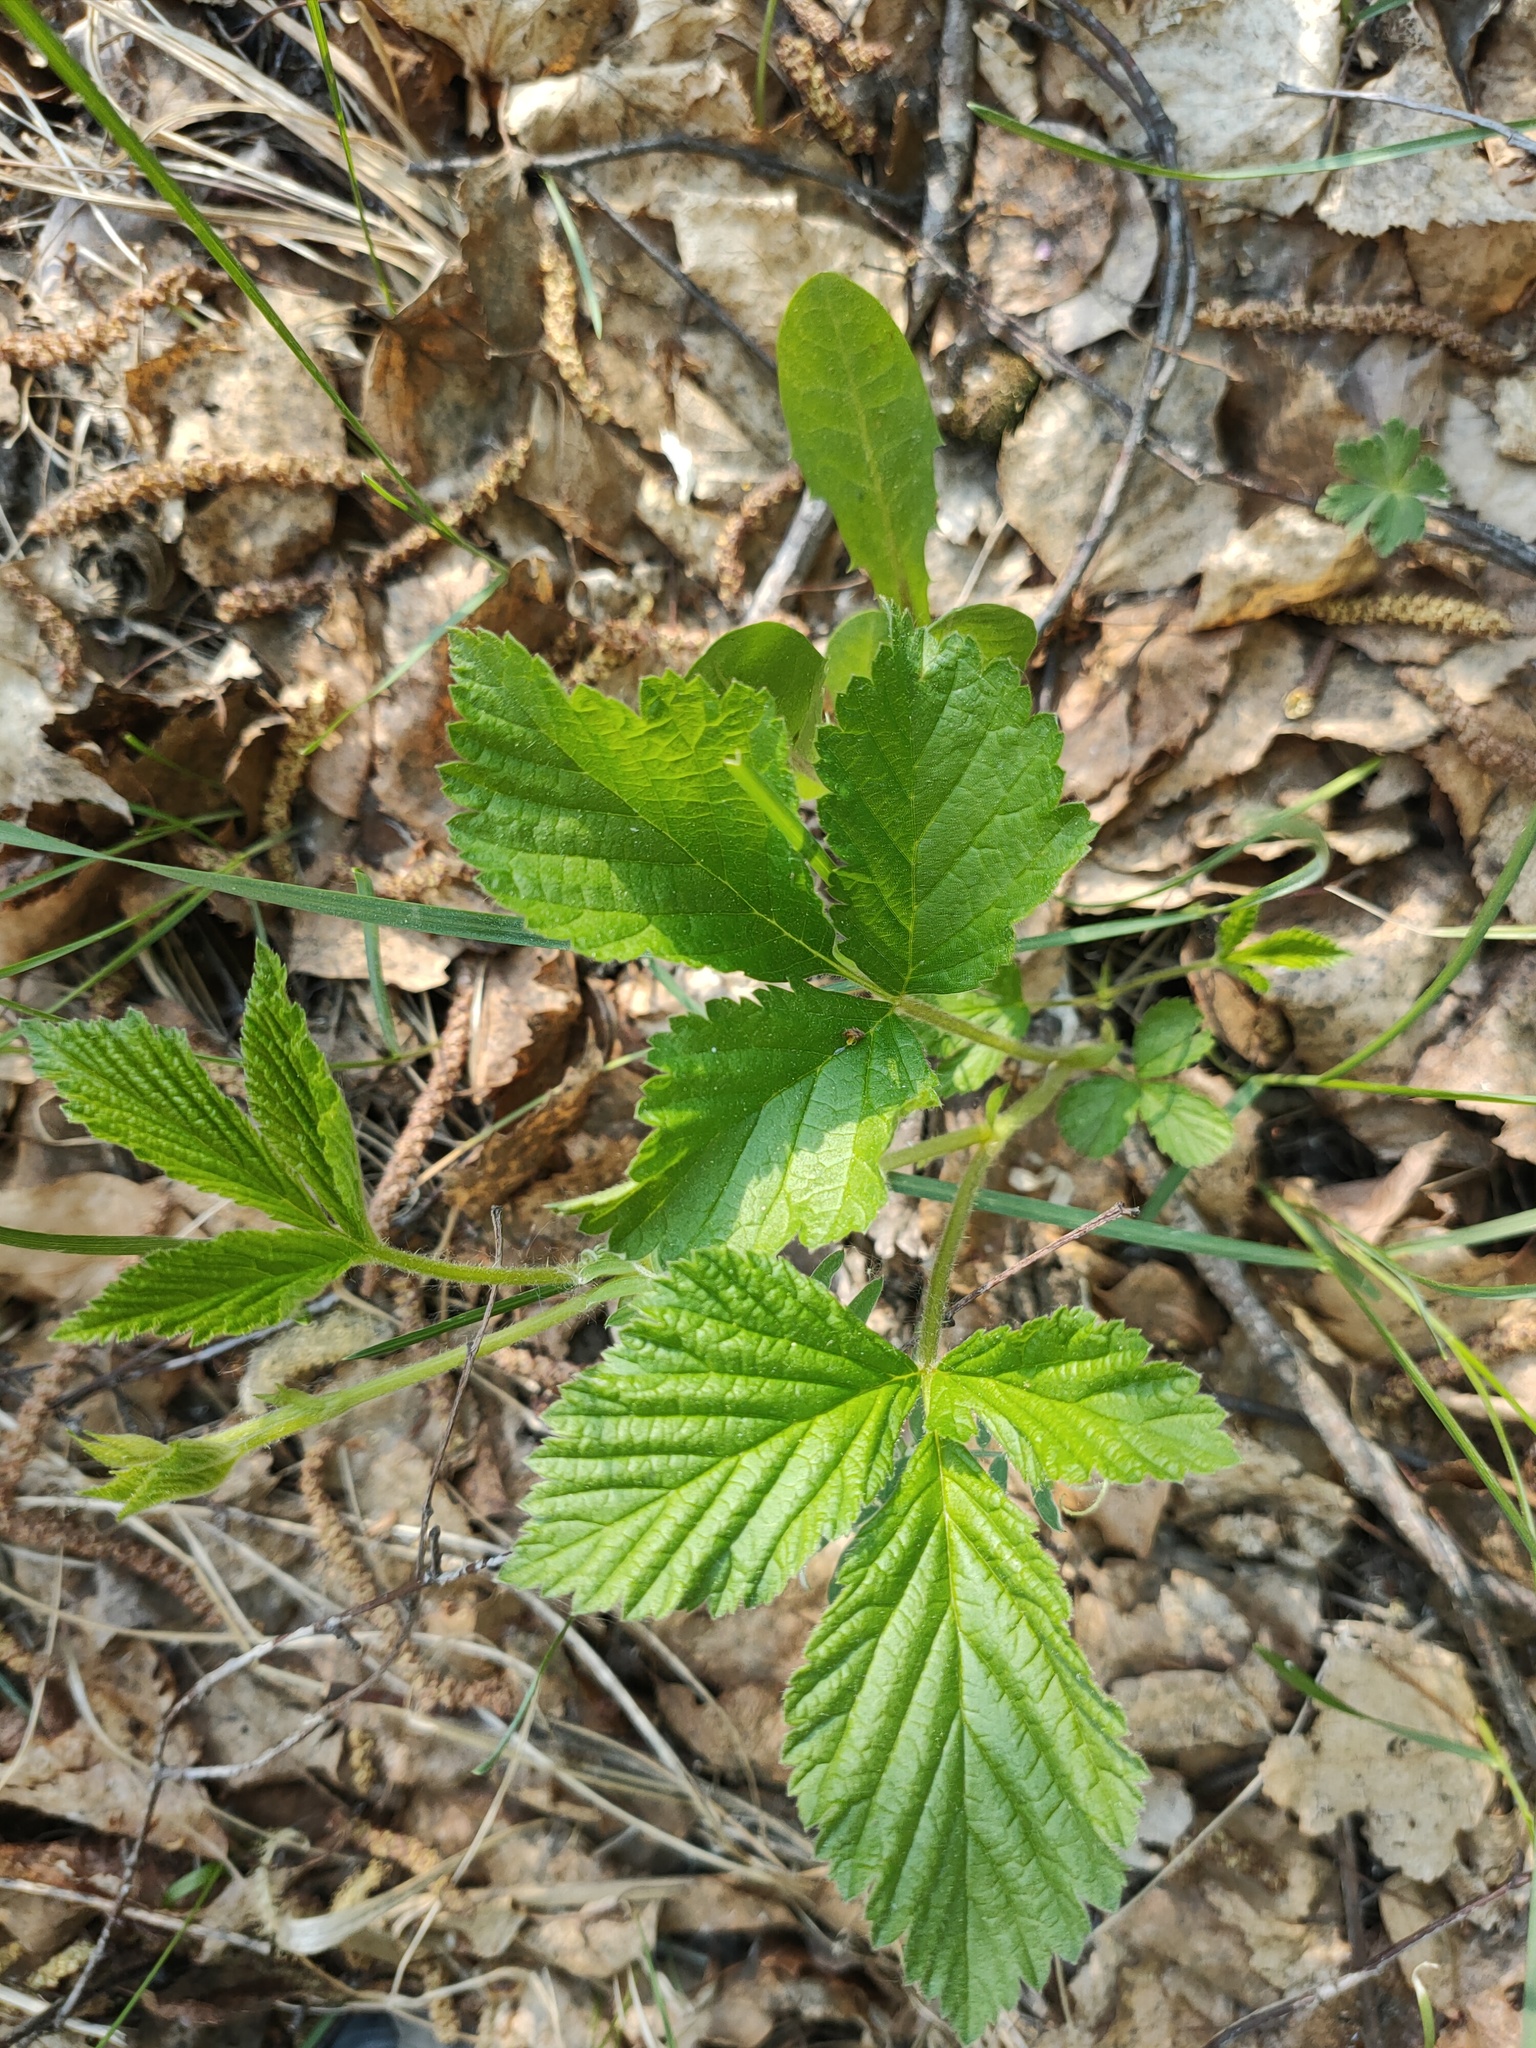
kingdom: Plantae
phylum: Tracheophyta
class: Magnoliopsida
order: Rosales
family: Rosaceae
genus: Rubus
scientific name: Rubus saxatilis
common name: Stone bramble
